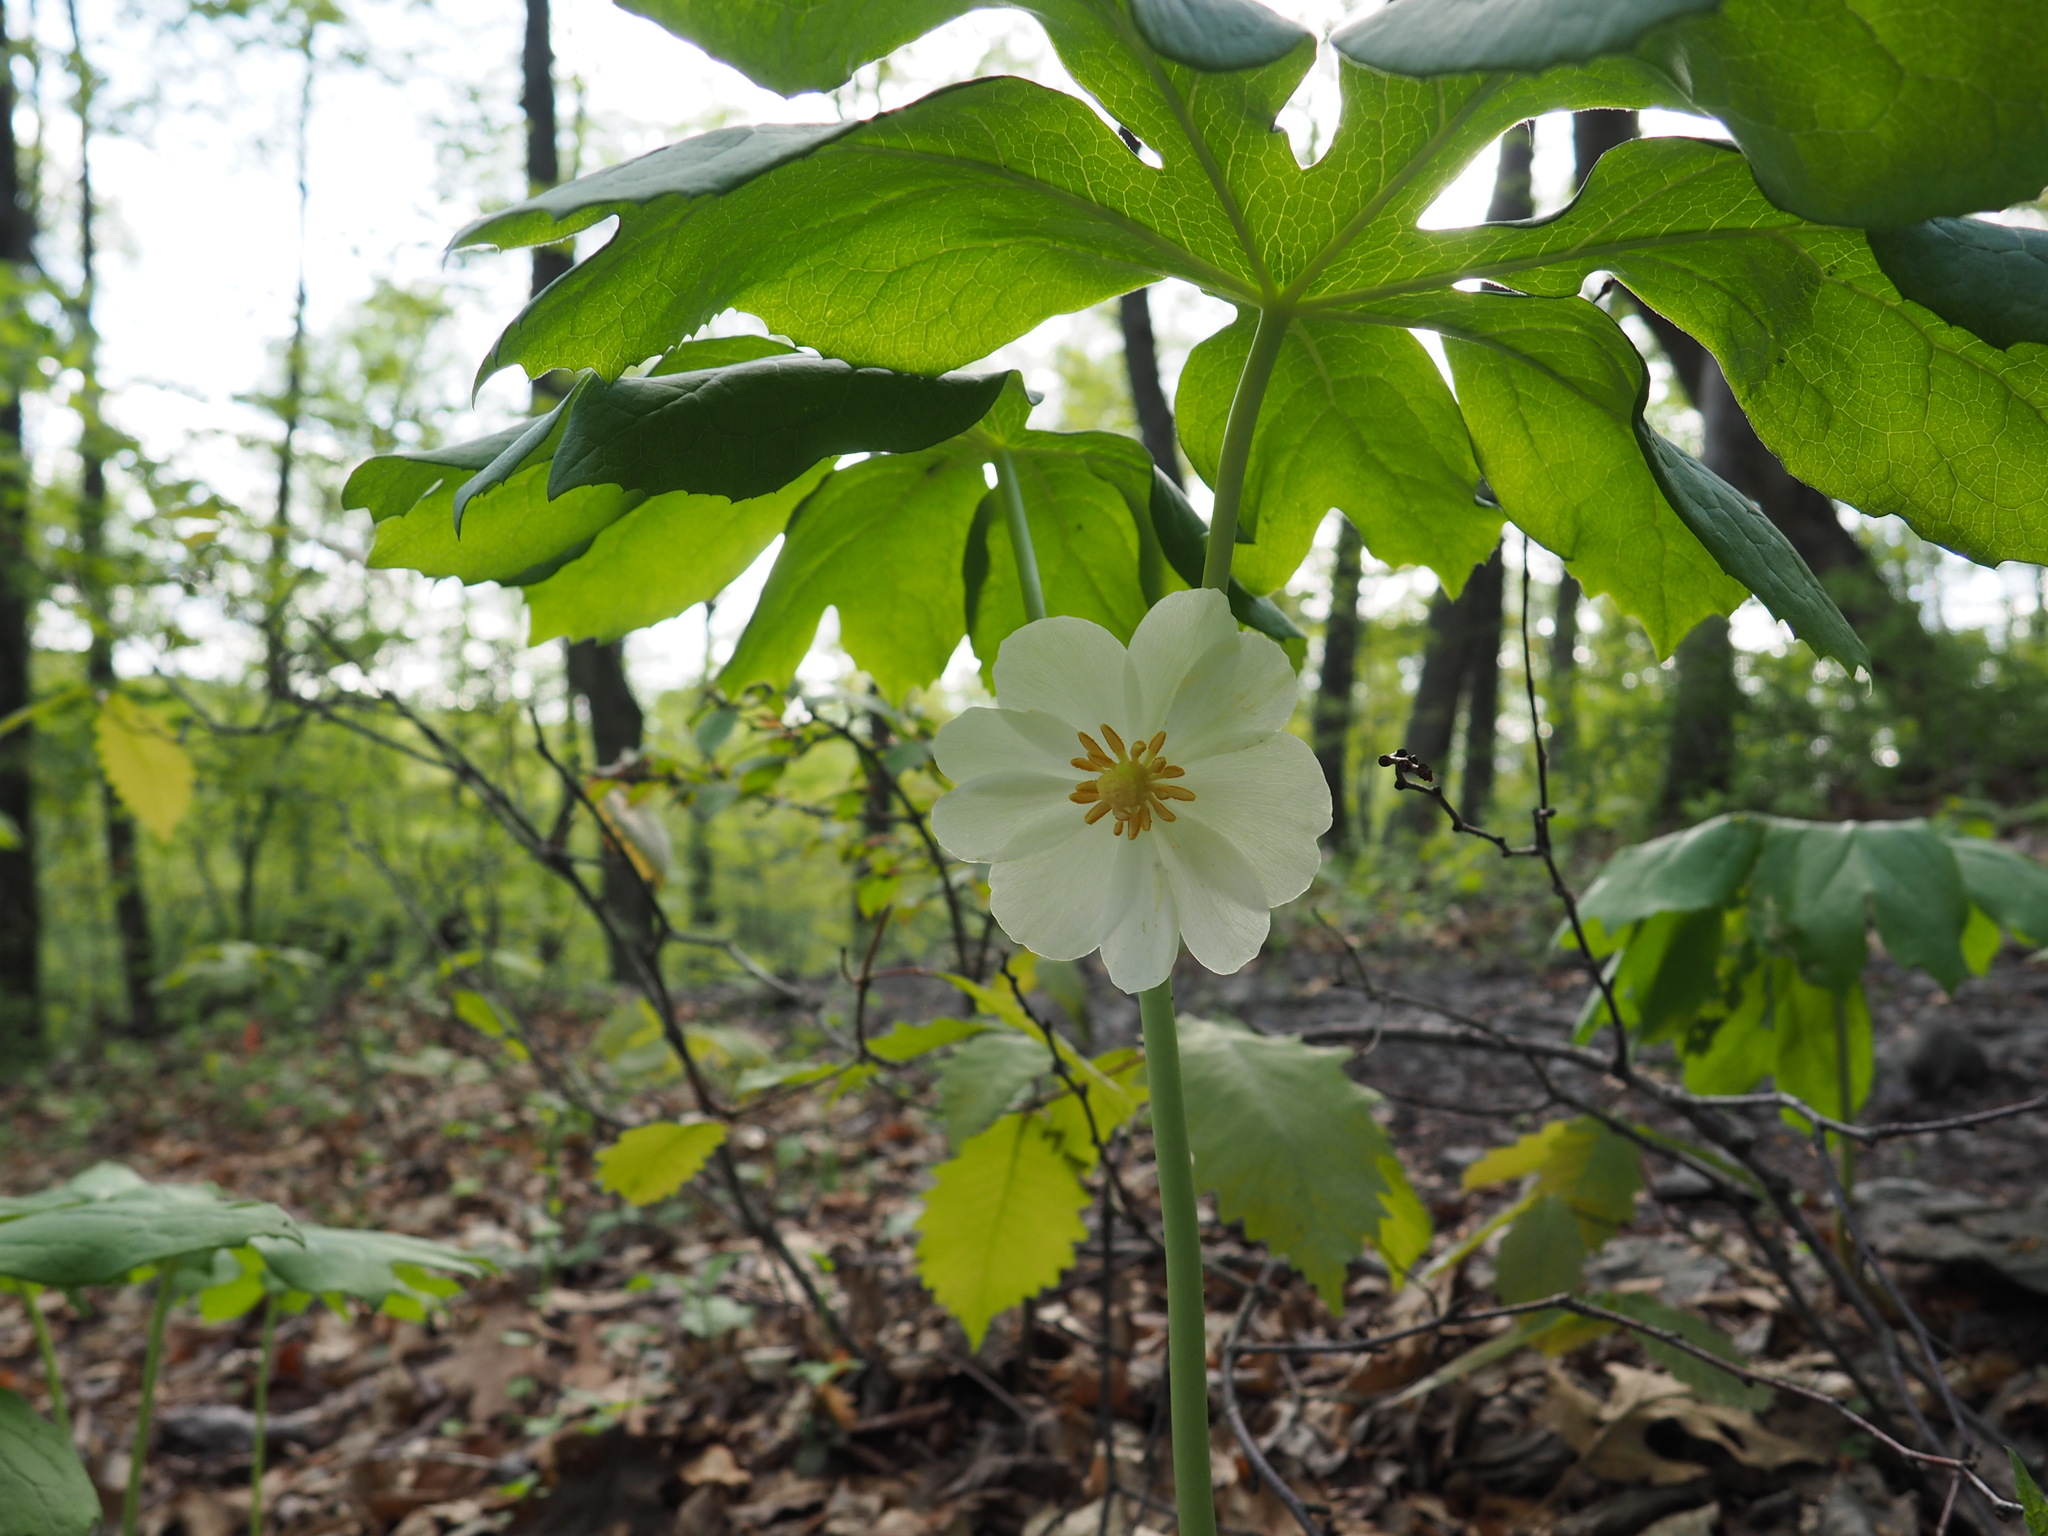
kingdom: Plantae
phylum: Tracheophyta
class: Magnoliopsida
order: Ranunculales
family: Berberidaceae
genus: Podophyllum
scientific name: Podophyllum peltatum
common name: Wild mandrake
